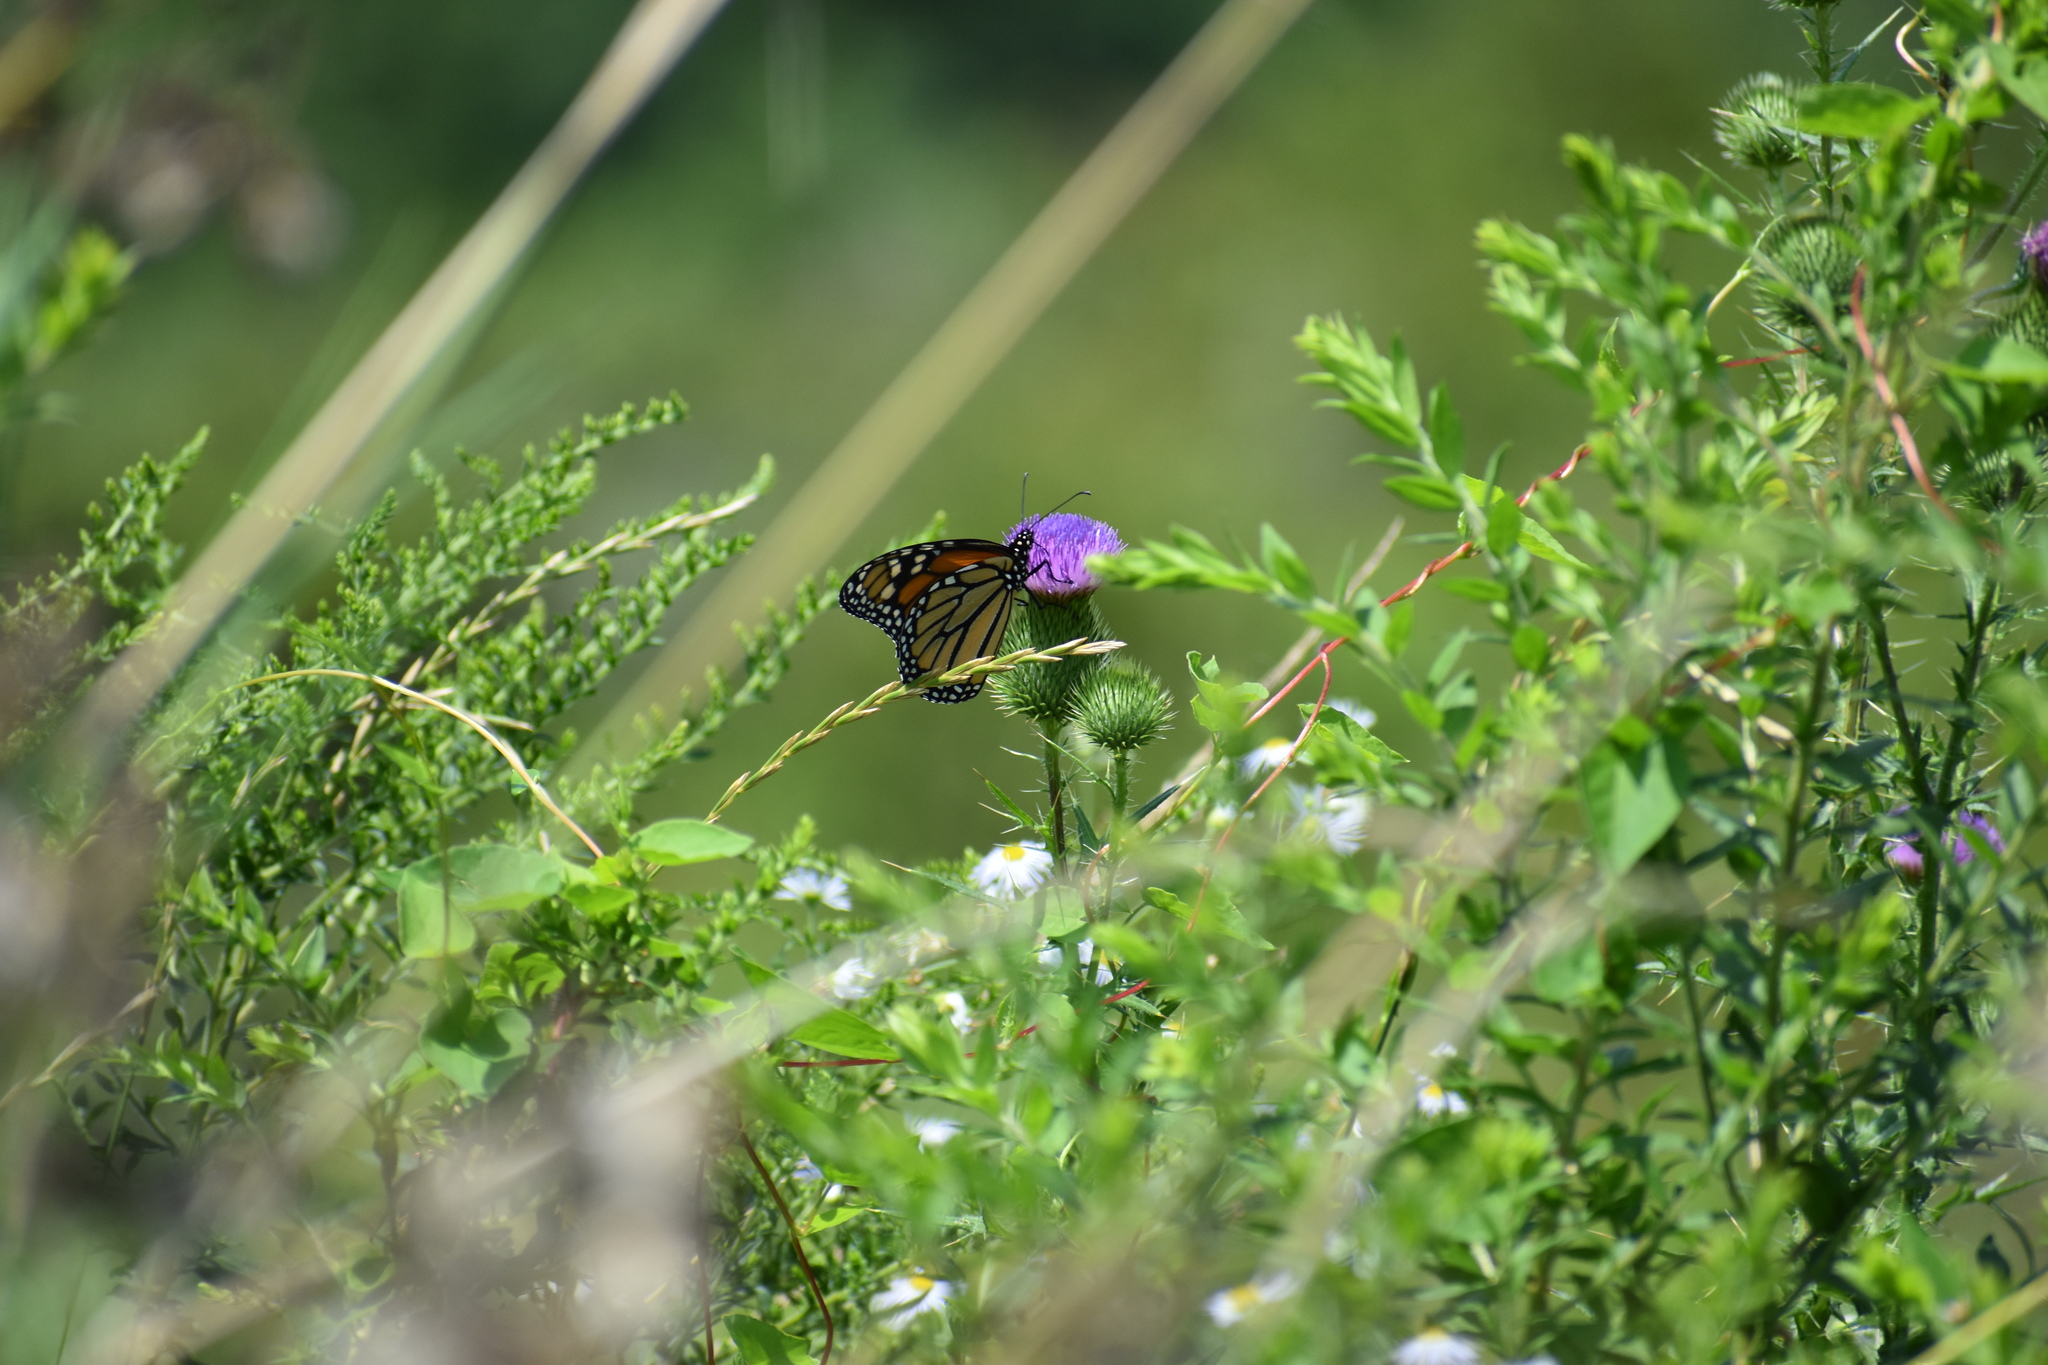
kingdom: Animalia
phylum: Arthropoda
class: Insecta
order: Lepidoptera
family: Nymphalidae
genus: Danaus
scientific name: Danaus plexippus
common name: Monarch
